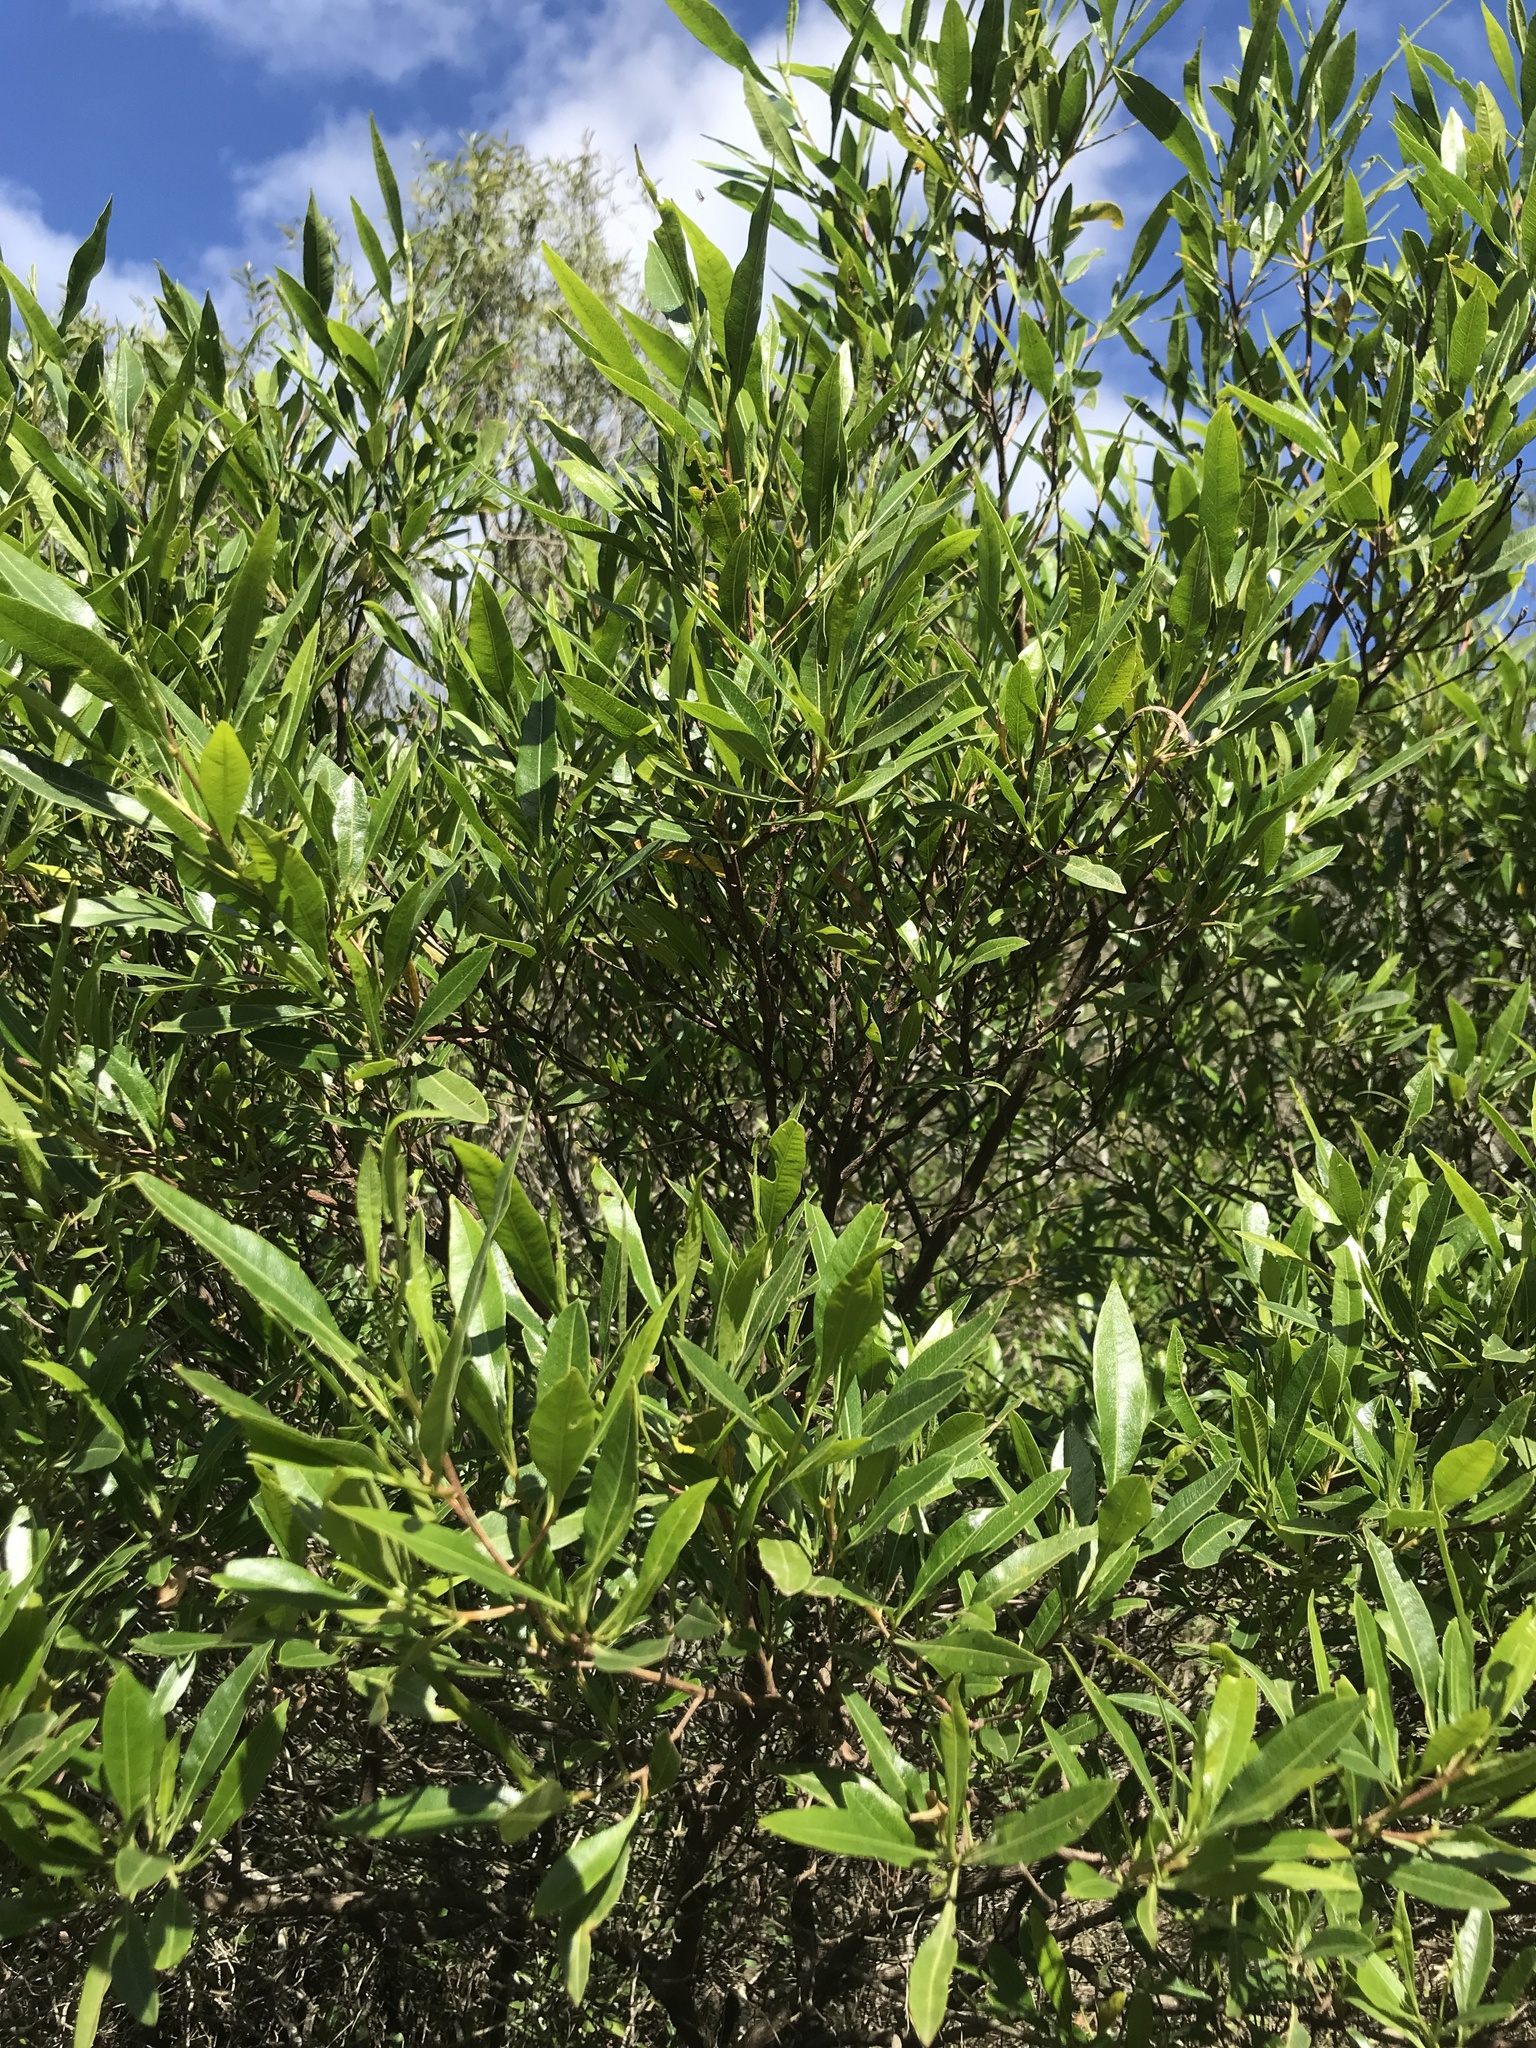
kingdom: Plantae
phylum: Tracheophyta
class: Magnoliopsida
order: Sapindales
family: Sapindaceae
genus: Dodonaea
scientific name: Dodonaea viscosa
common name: Hopbush
